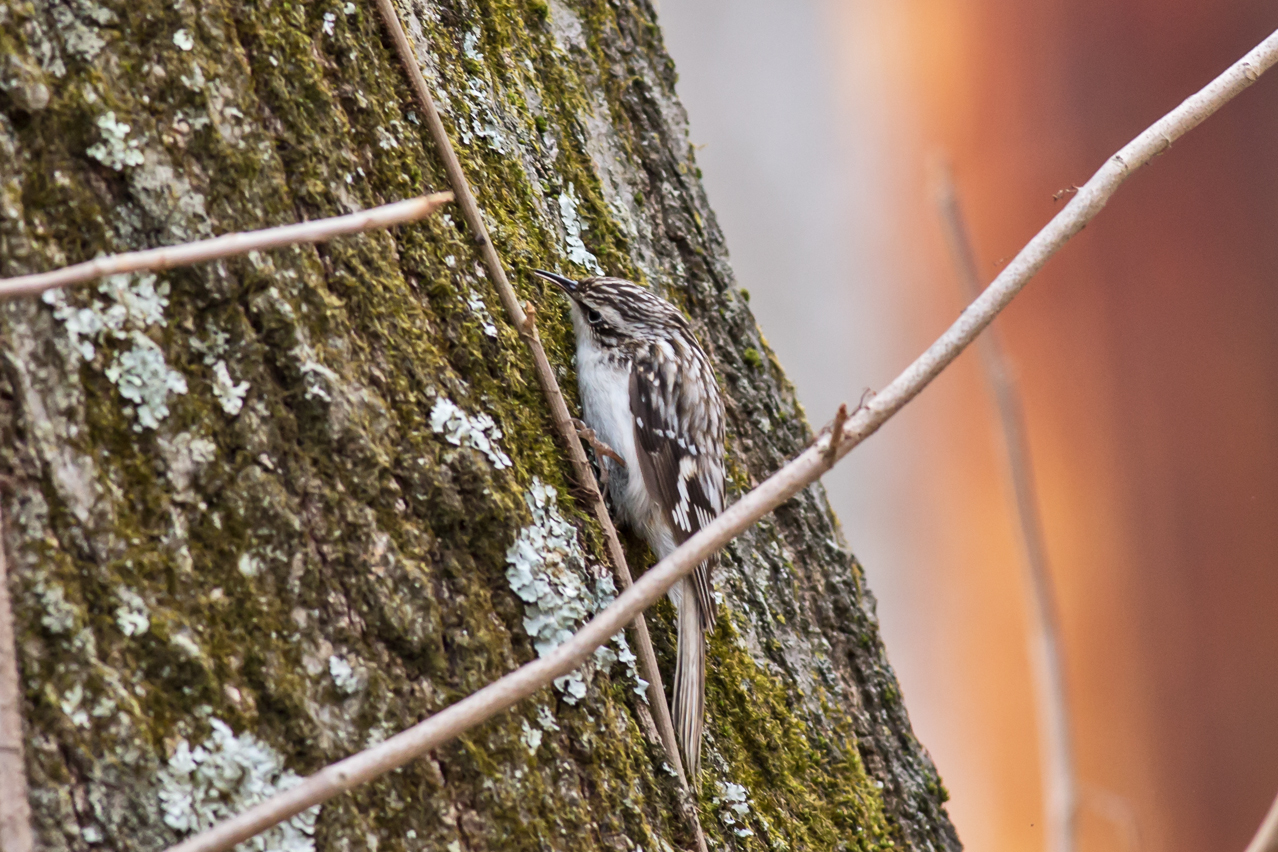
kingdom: Animalia
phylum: Chordata
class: Aves
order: Passeriformes
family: Certhiidae
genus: Certhia
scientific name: Certhia americana
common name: Brown creeper
